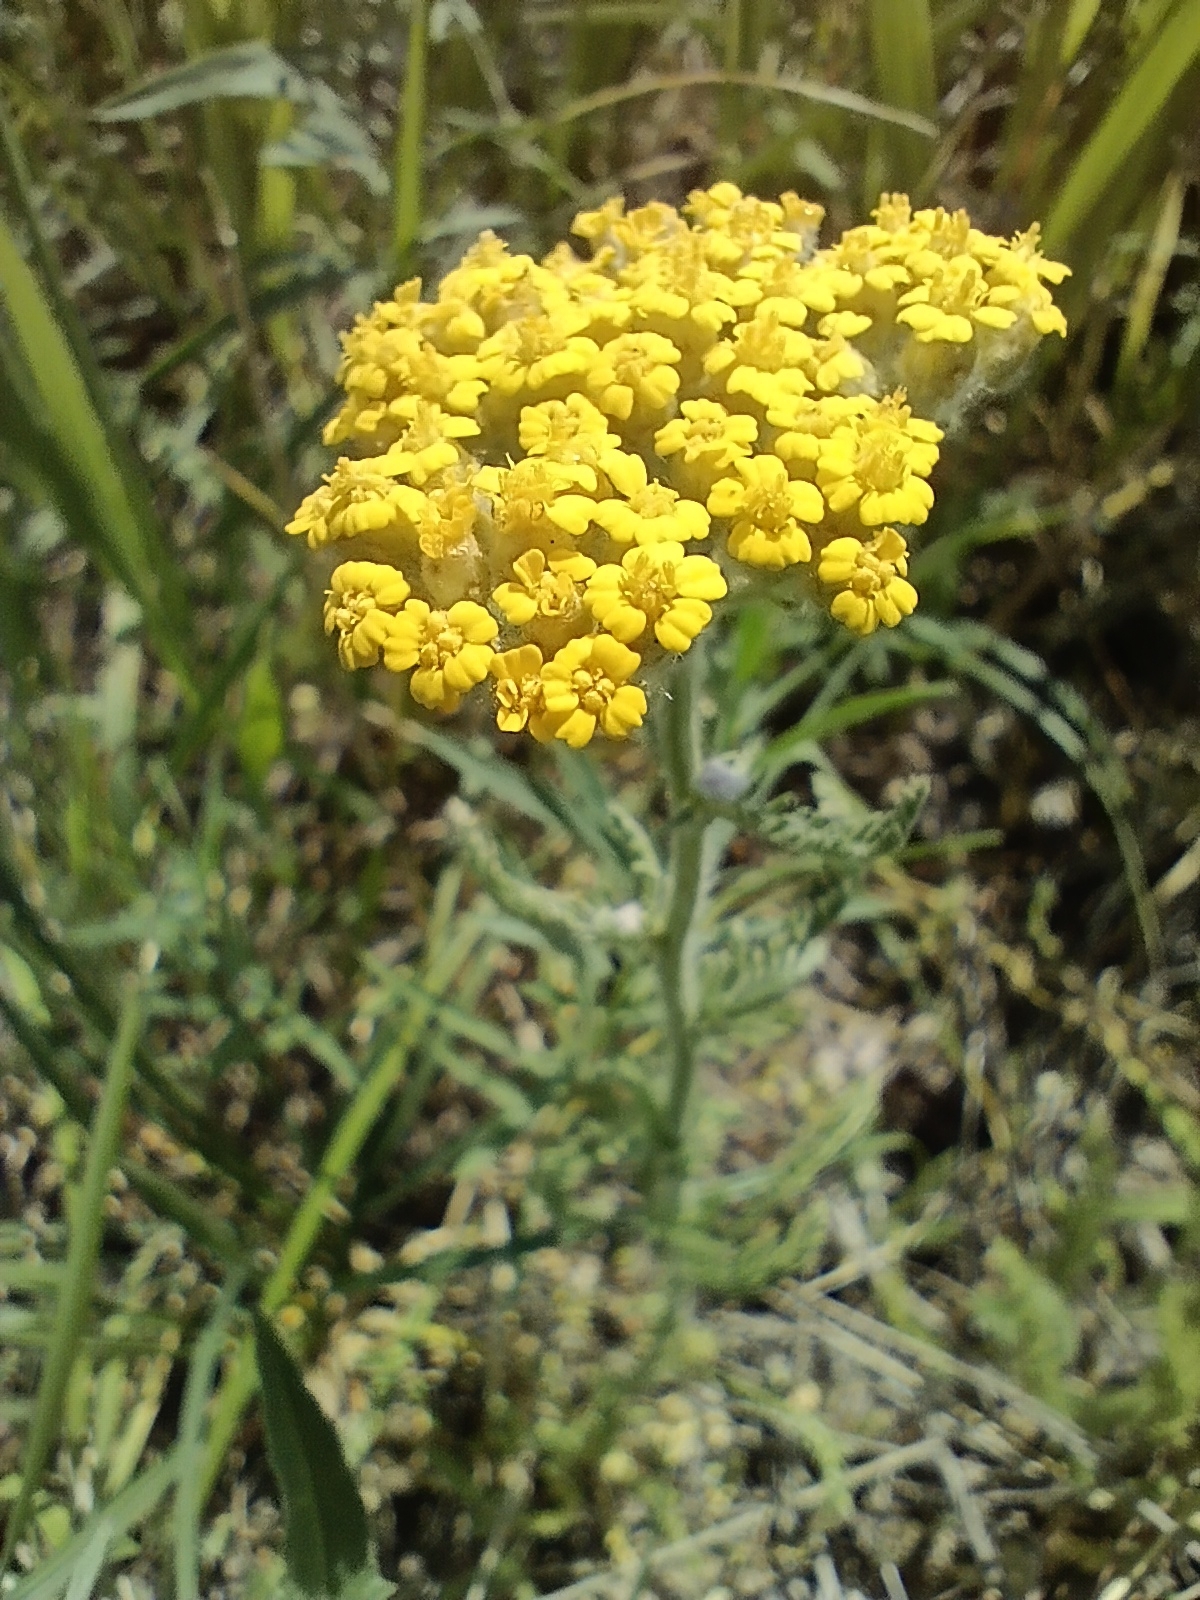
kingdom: Plantae
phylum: Tracheophyta
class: Magnoliopsida
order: Asterales
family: Asteraceae
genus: Achillea
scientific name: Achillea arabica
